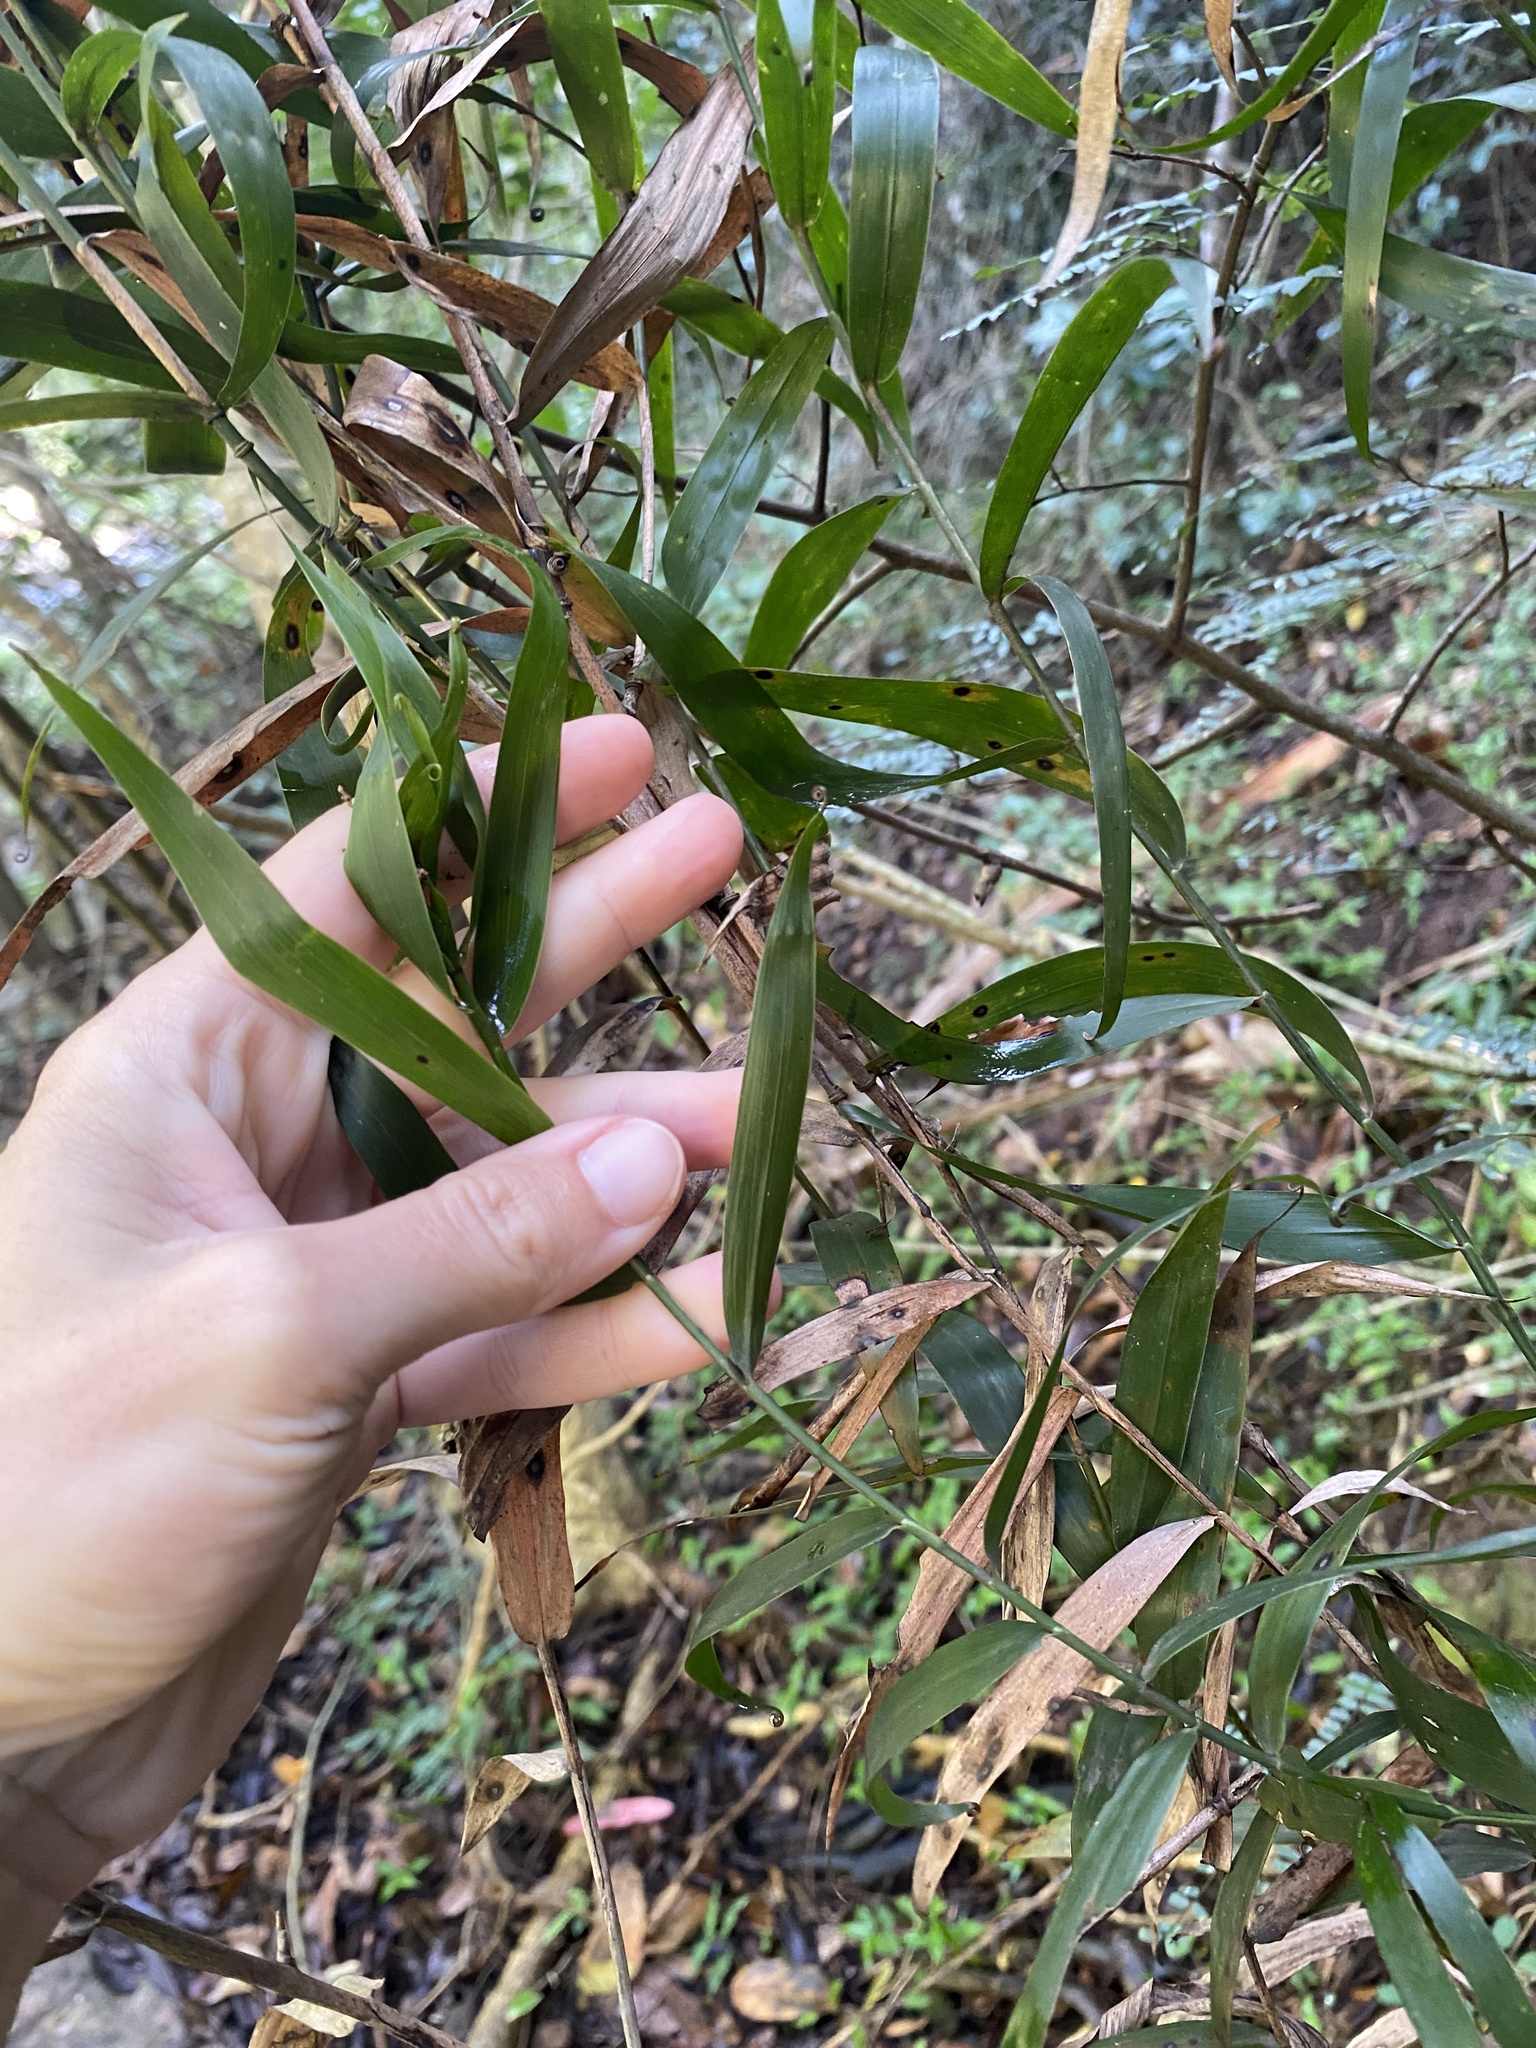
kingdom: Plantae
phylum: Tracheophyta
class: Liliopsida
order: Poales
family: Flagellariaceae
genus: Flagellaria
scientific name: Flagellaria guineensis
